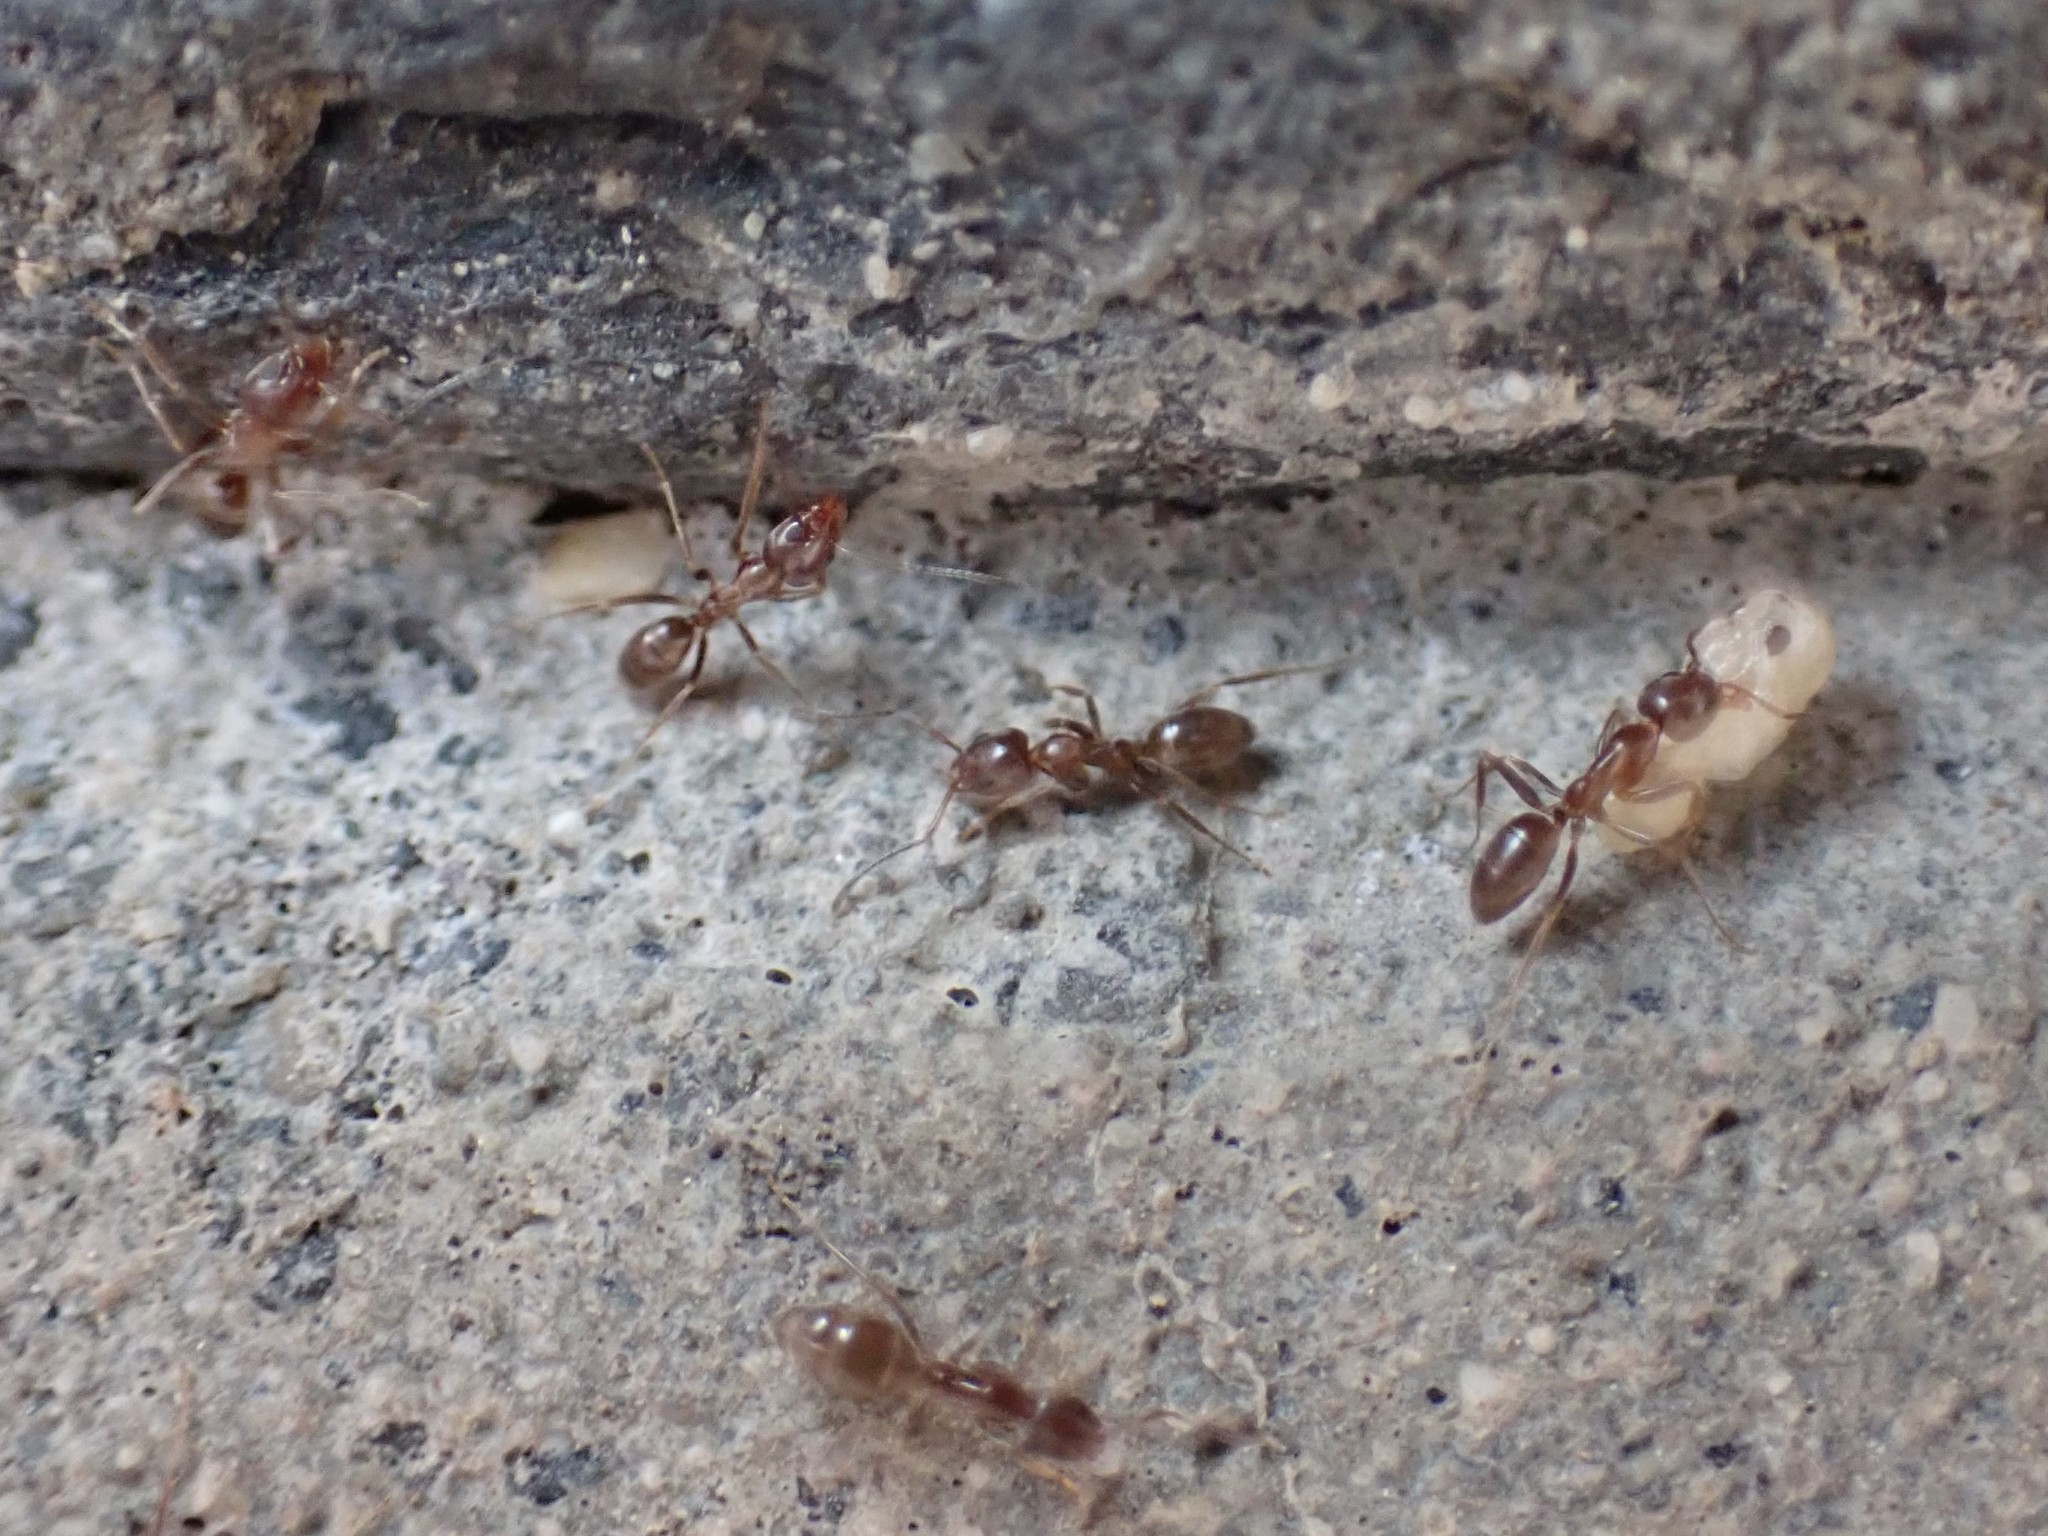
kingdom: Animalia
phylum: Arthropoda
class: Insecta
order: Hymenoptera
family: Formicidae
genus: Linepithema
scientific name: Linepithema humile
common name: Argentine ant
